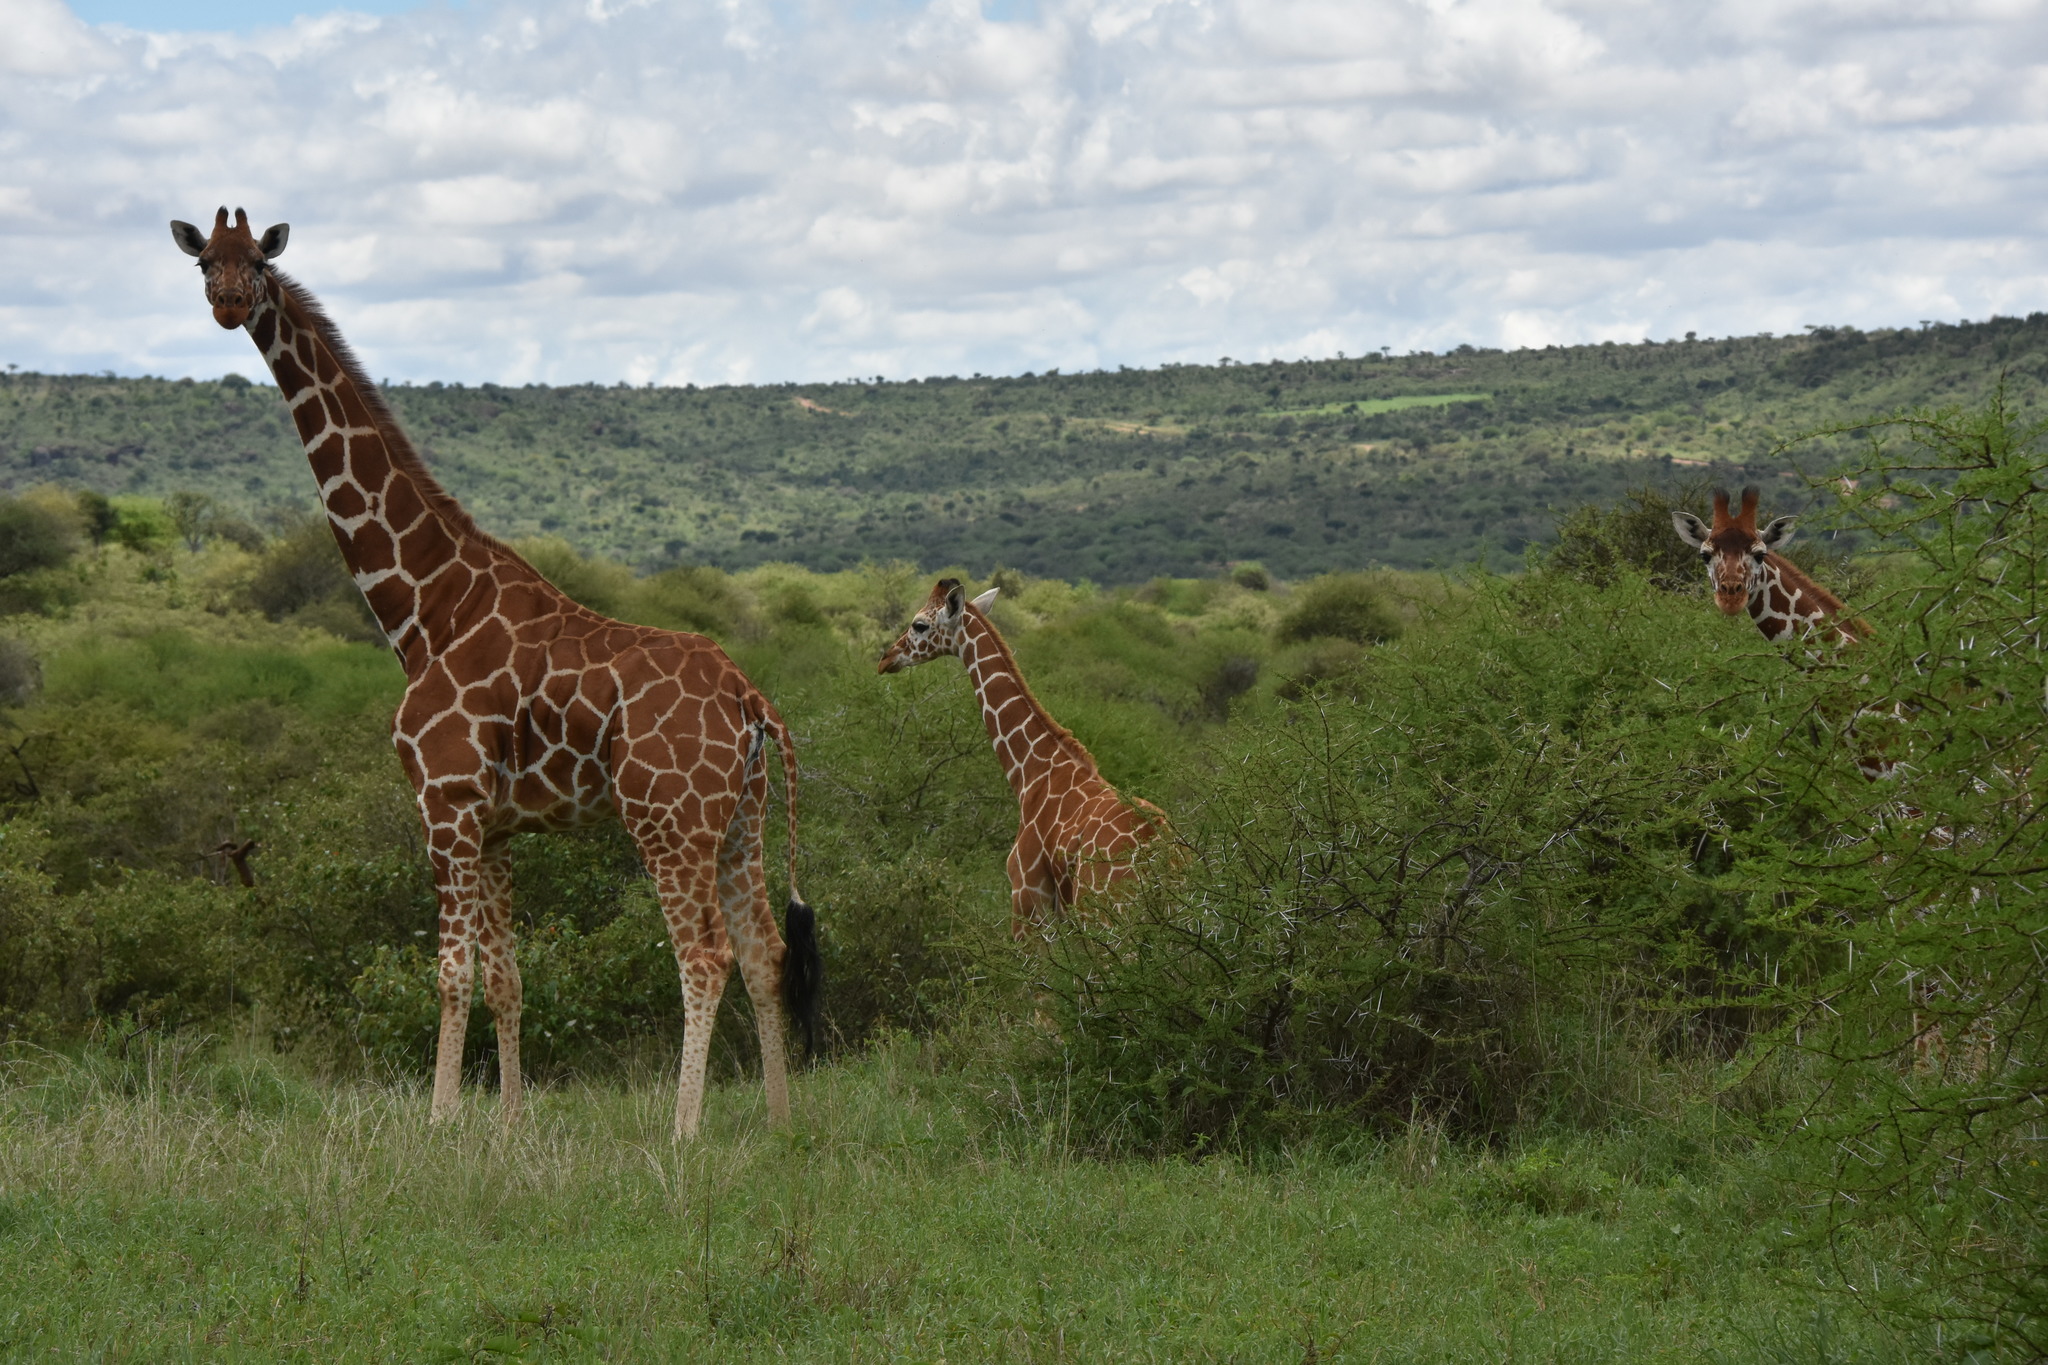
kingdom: Animalia
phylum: Chordata
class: Mammalia
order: Artiodactyla
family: Giraffidae
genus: Giraffa
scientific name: Giraffa reticulata
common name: Reticulated giraffe
